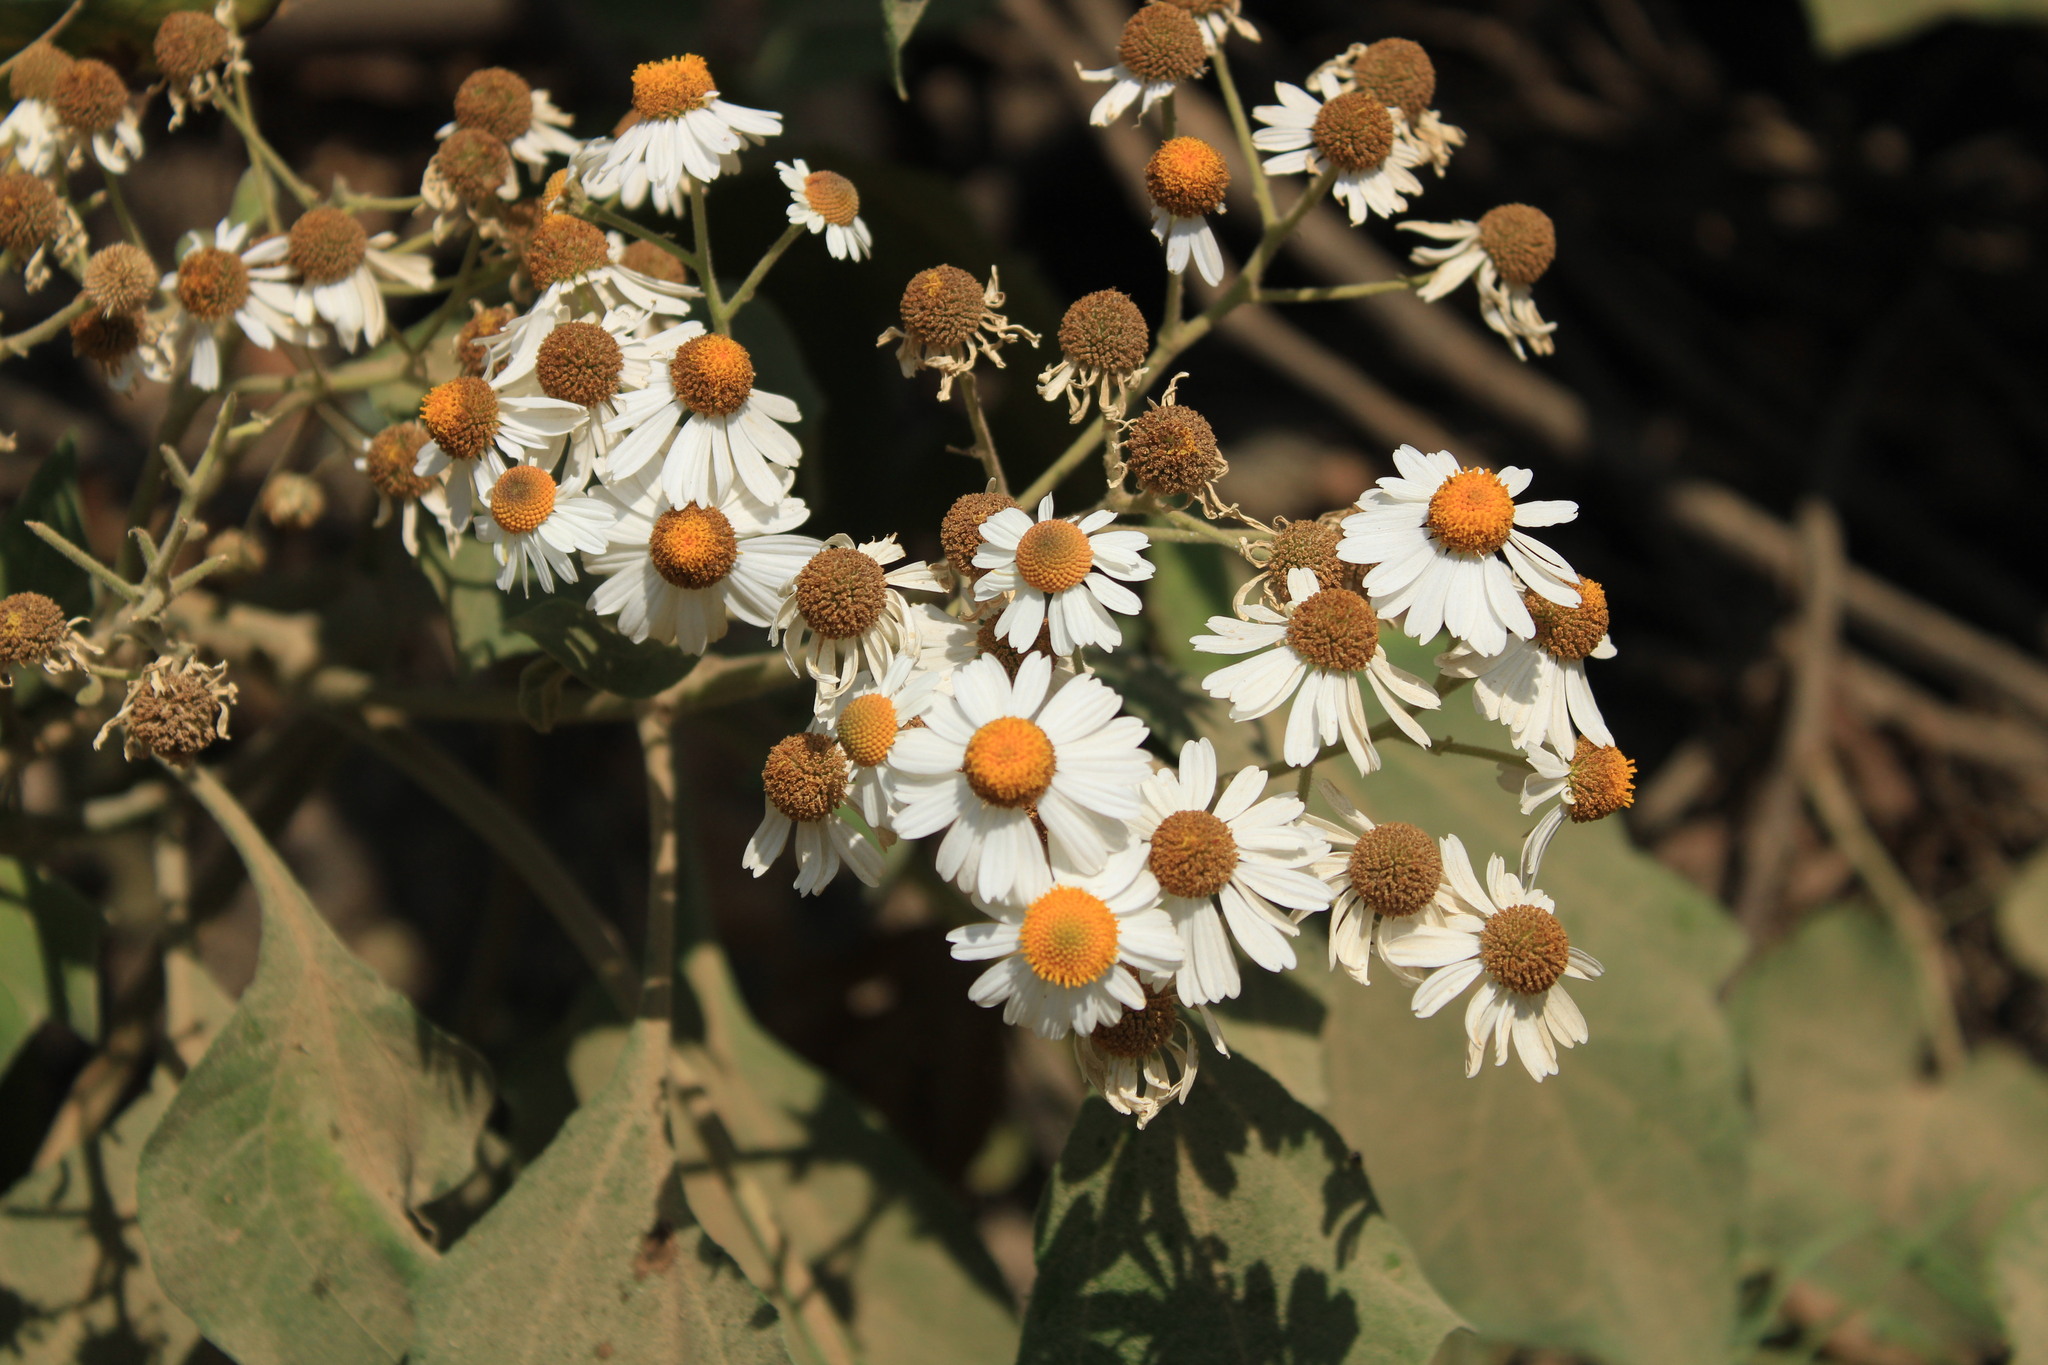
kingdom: Plantae
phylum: Tracheophyta
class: Magnoliopsida
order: Asterales
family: Asteraceae
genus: Podachaenium
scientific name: Podachaenium eminens
